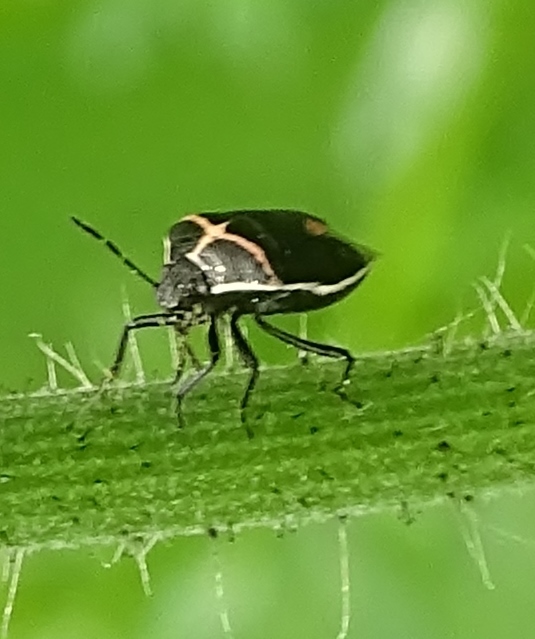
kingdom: Animalia
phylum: Arthropoda
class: Insecta
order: Hemiptera
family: Pentatomidae
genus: Cosmopepla
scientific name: Cosmopepla lintneriana
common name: Twice-stabbed stink bug
